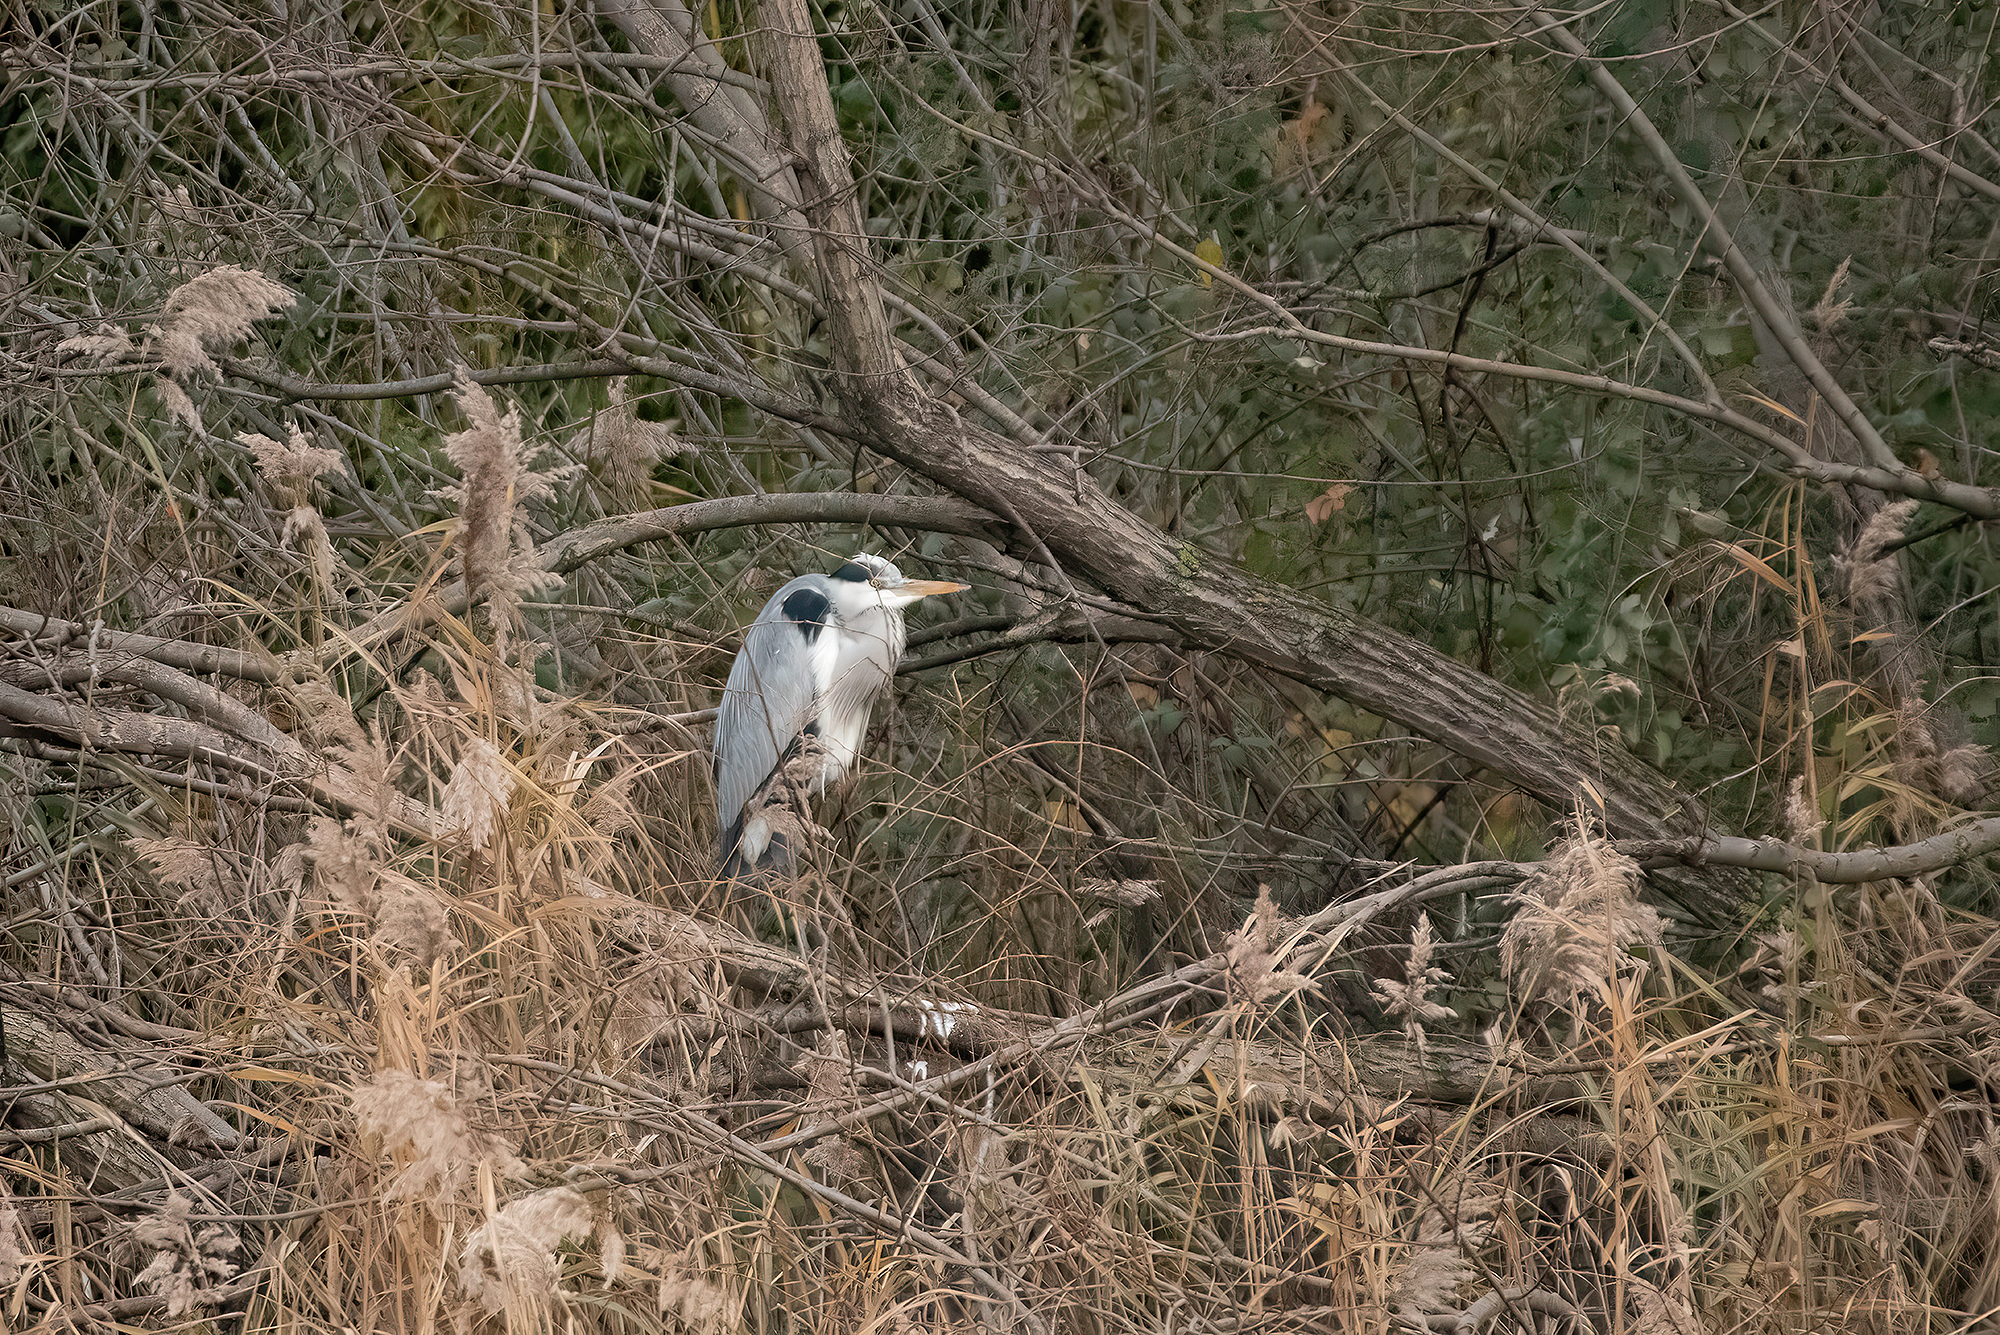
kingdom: Animalia
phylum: Chordata
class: Aves
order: Pelecaniformes
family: Ardeidae
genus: Ardea
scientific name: Ardea cinerea
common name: Grey heron
